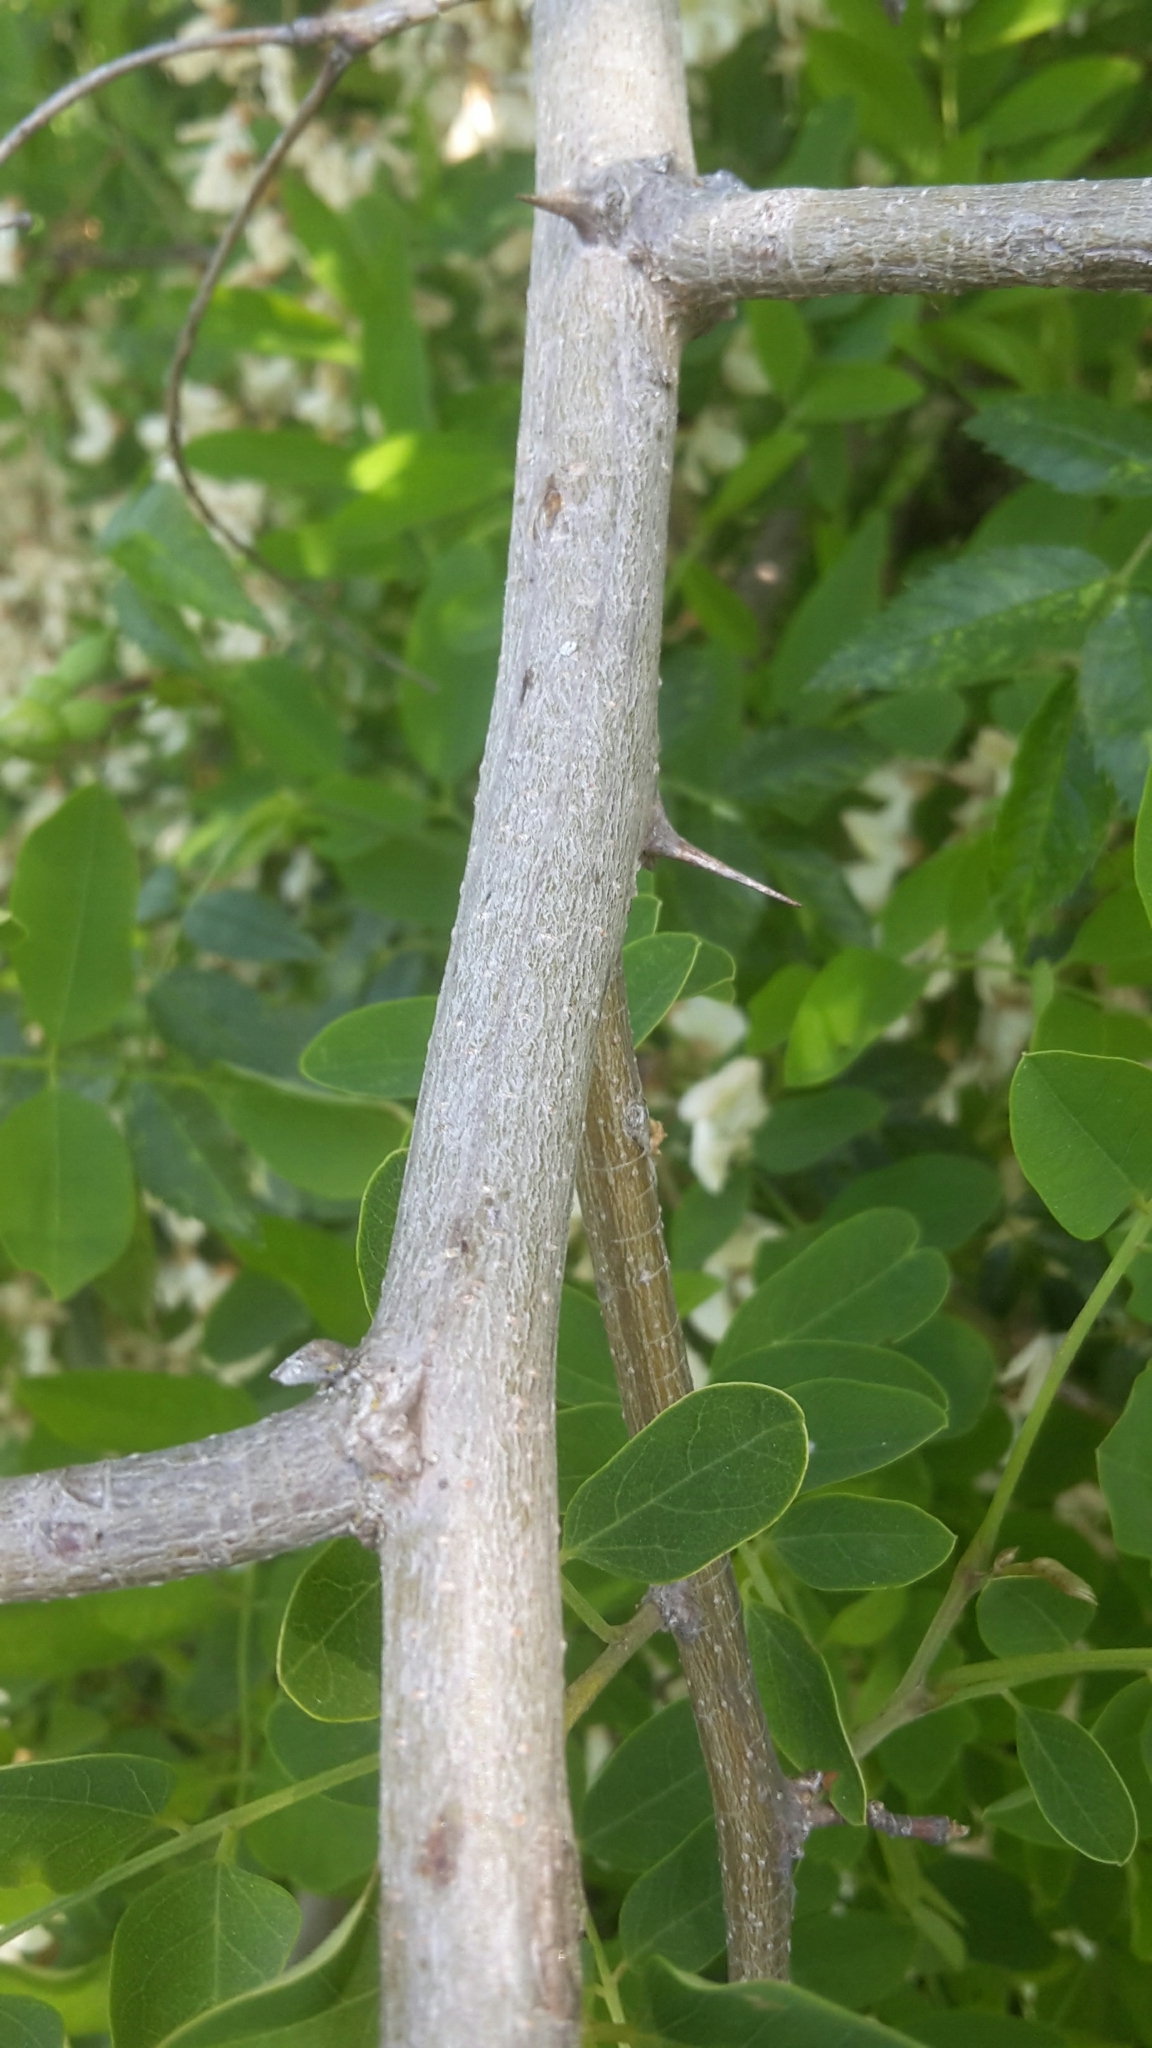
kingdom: Plantae
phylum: Tracheophyta
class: Magnoliopsida
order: Fabales
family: Fabaceae
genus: Robinia
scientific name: Robinia pseudoacacia
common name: Black locust
